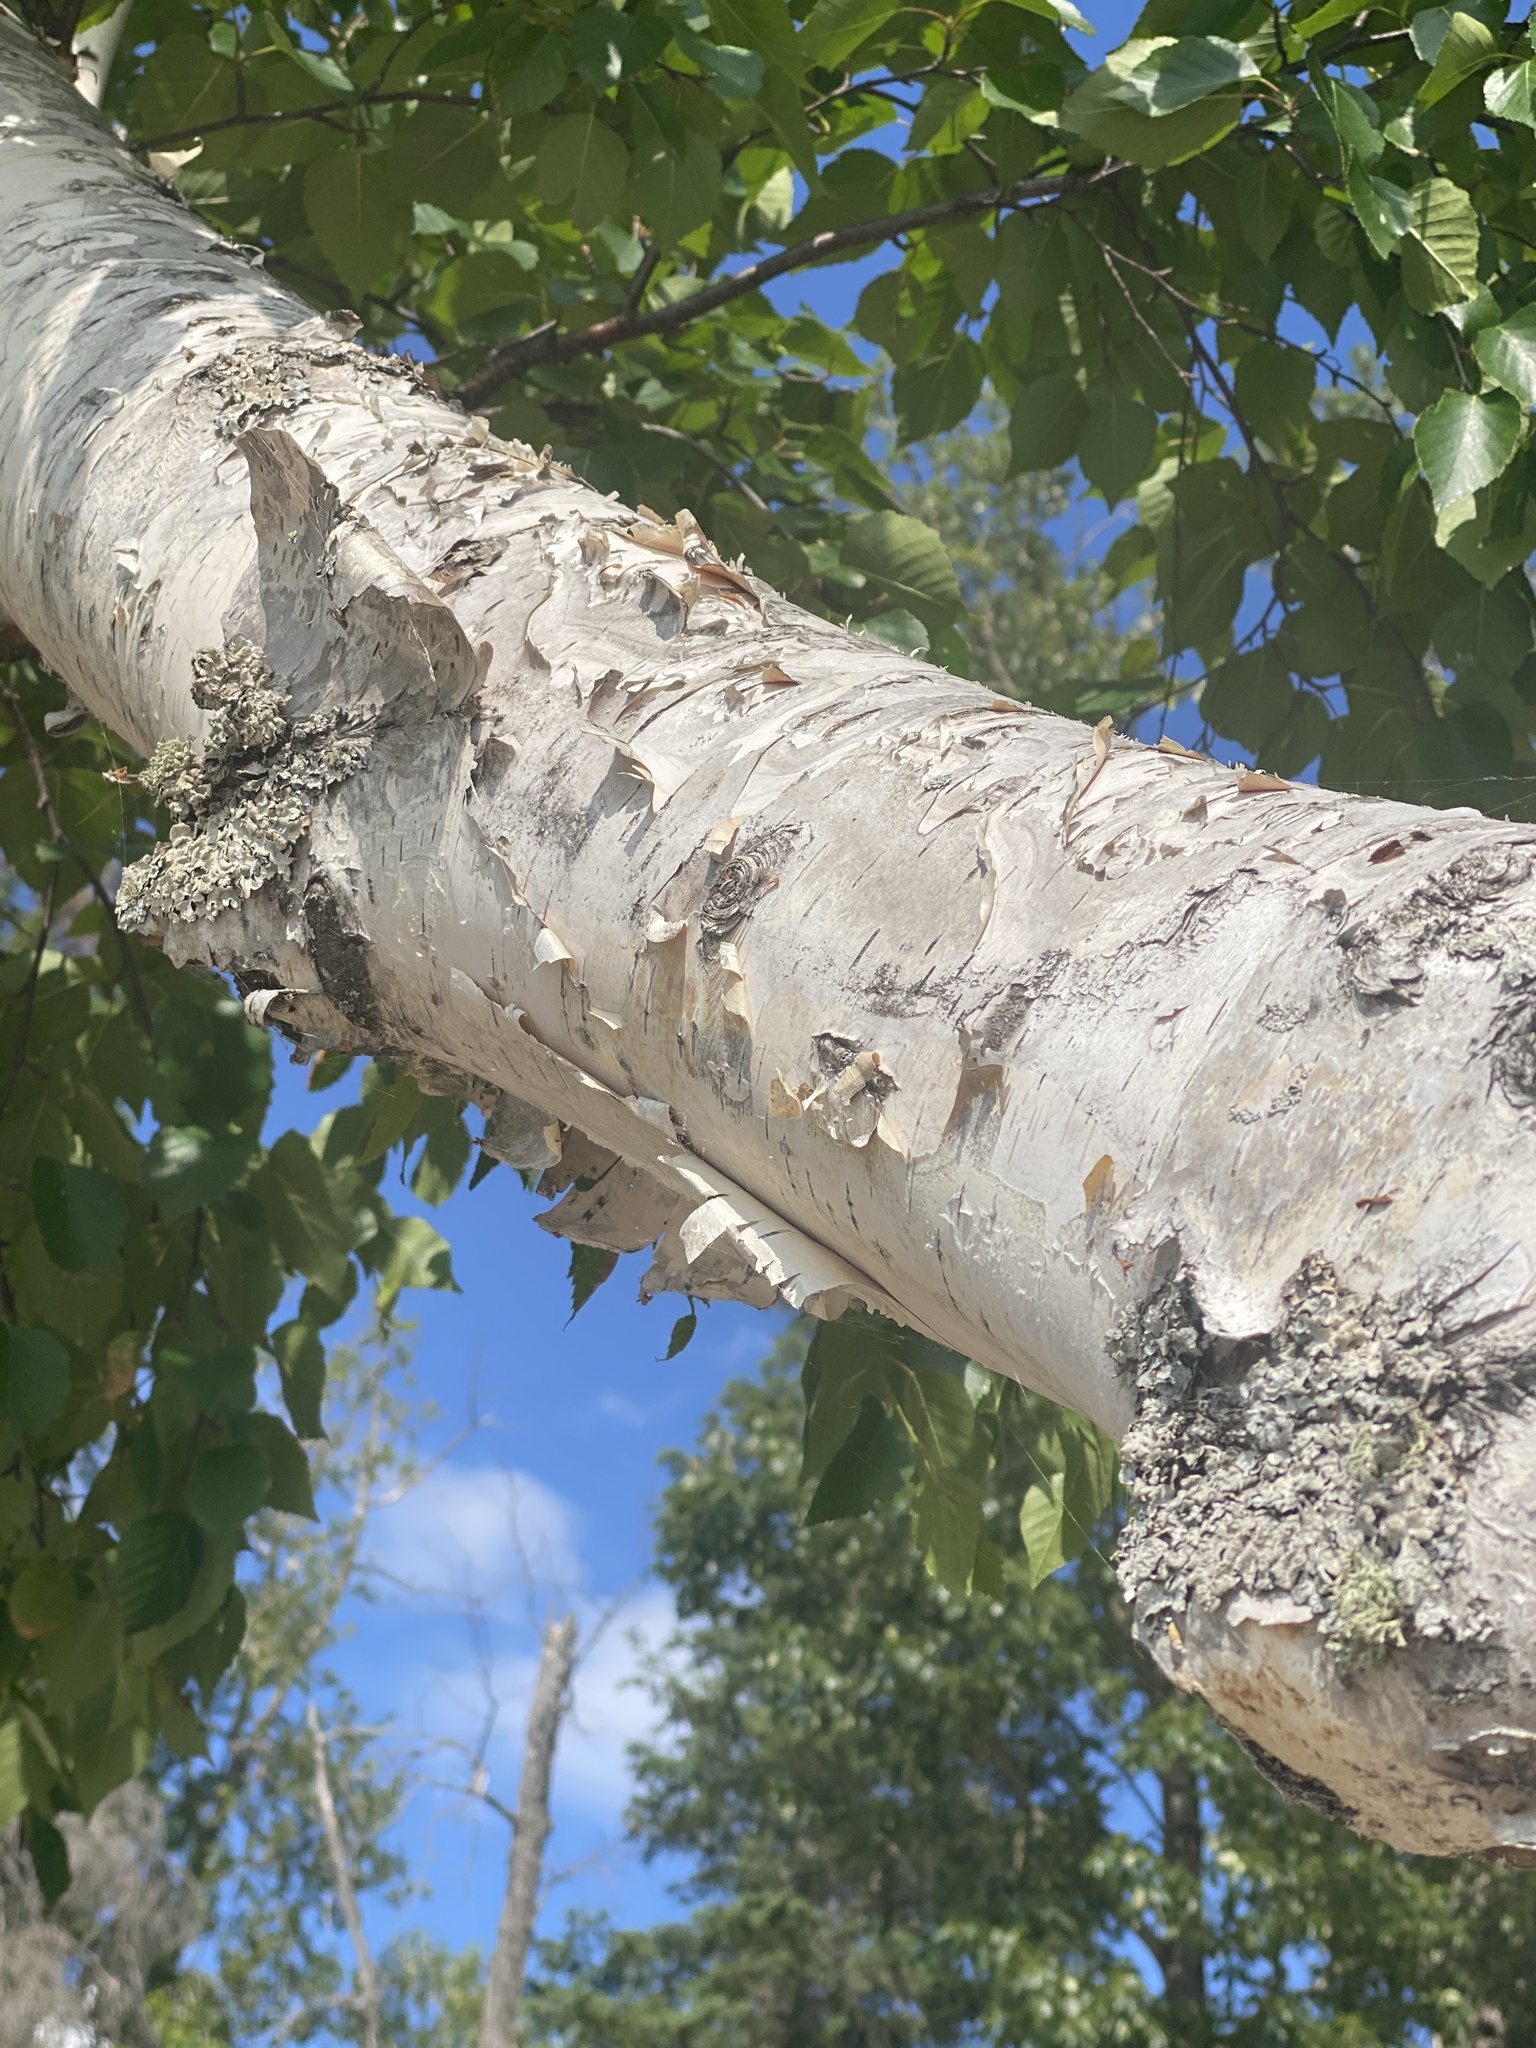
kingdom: Plantae
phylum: Tracheophyta
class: Magnoliopsida
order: Fagales
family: Betulaceae
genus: Betula
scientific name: Betula papyrifera
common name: Paper birch
